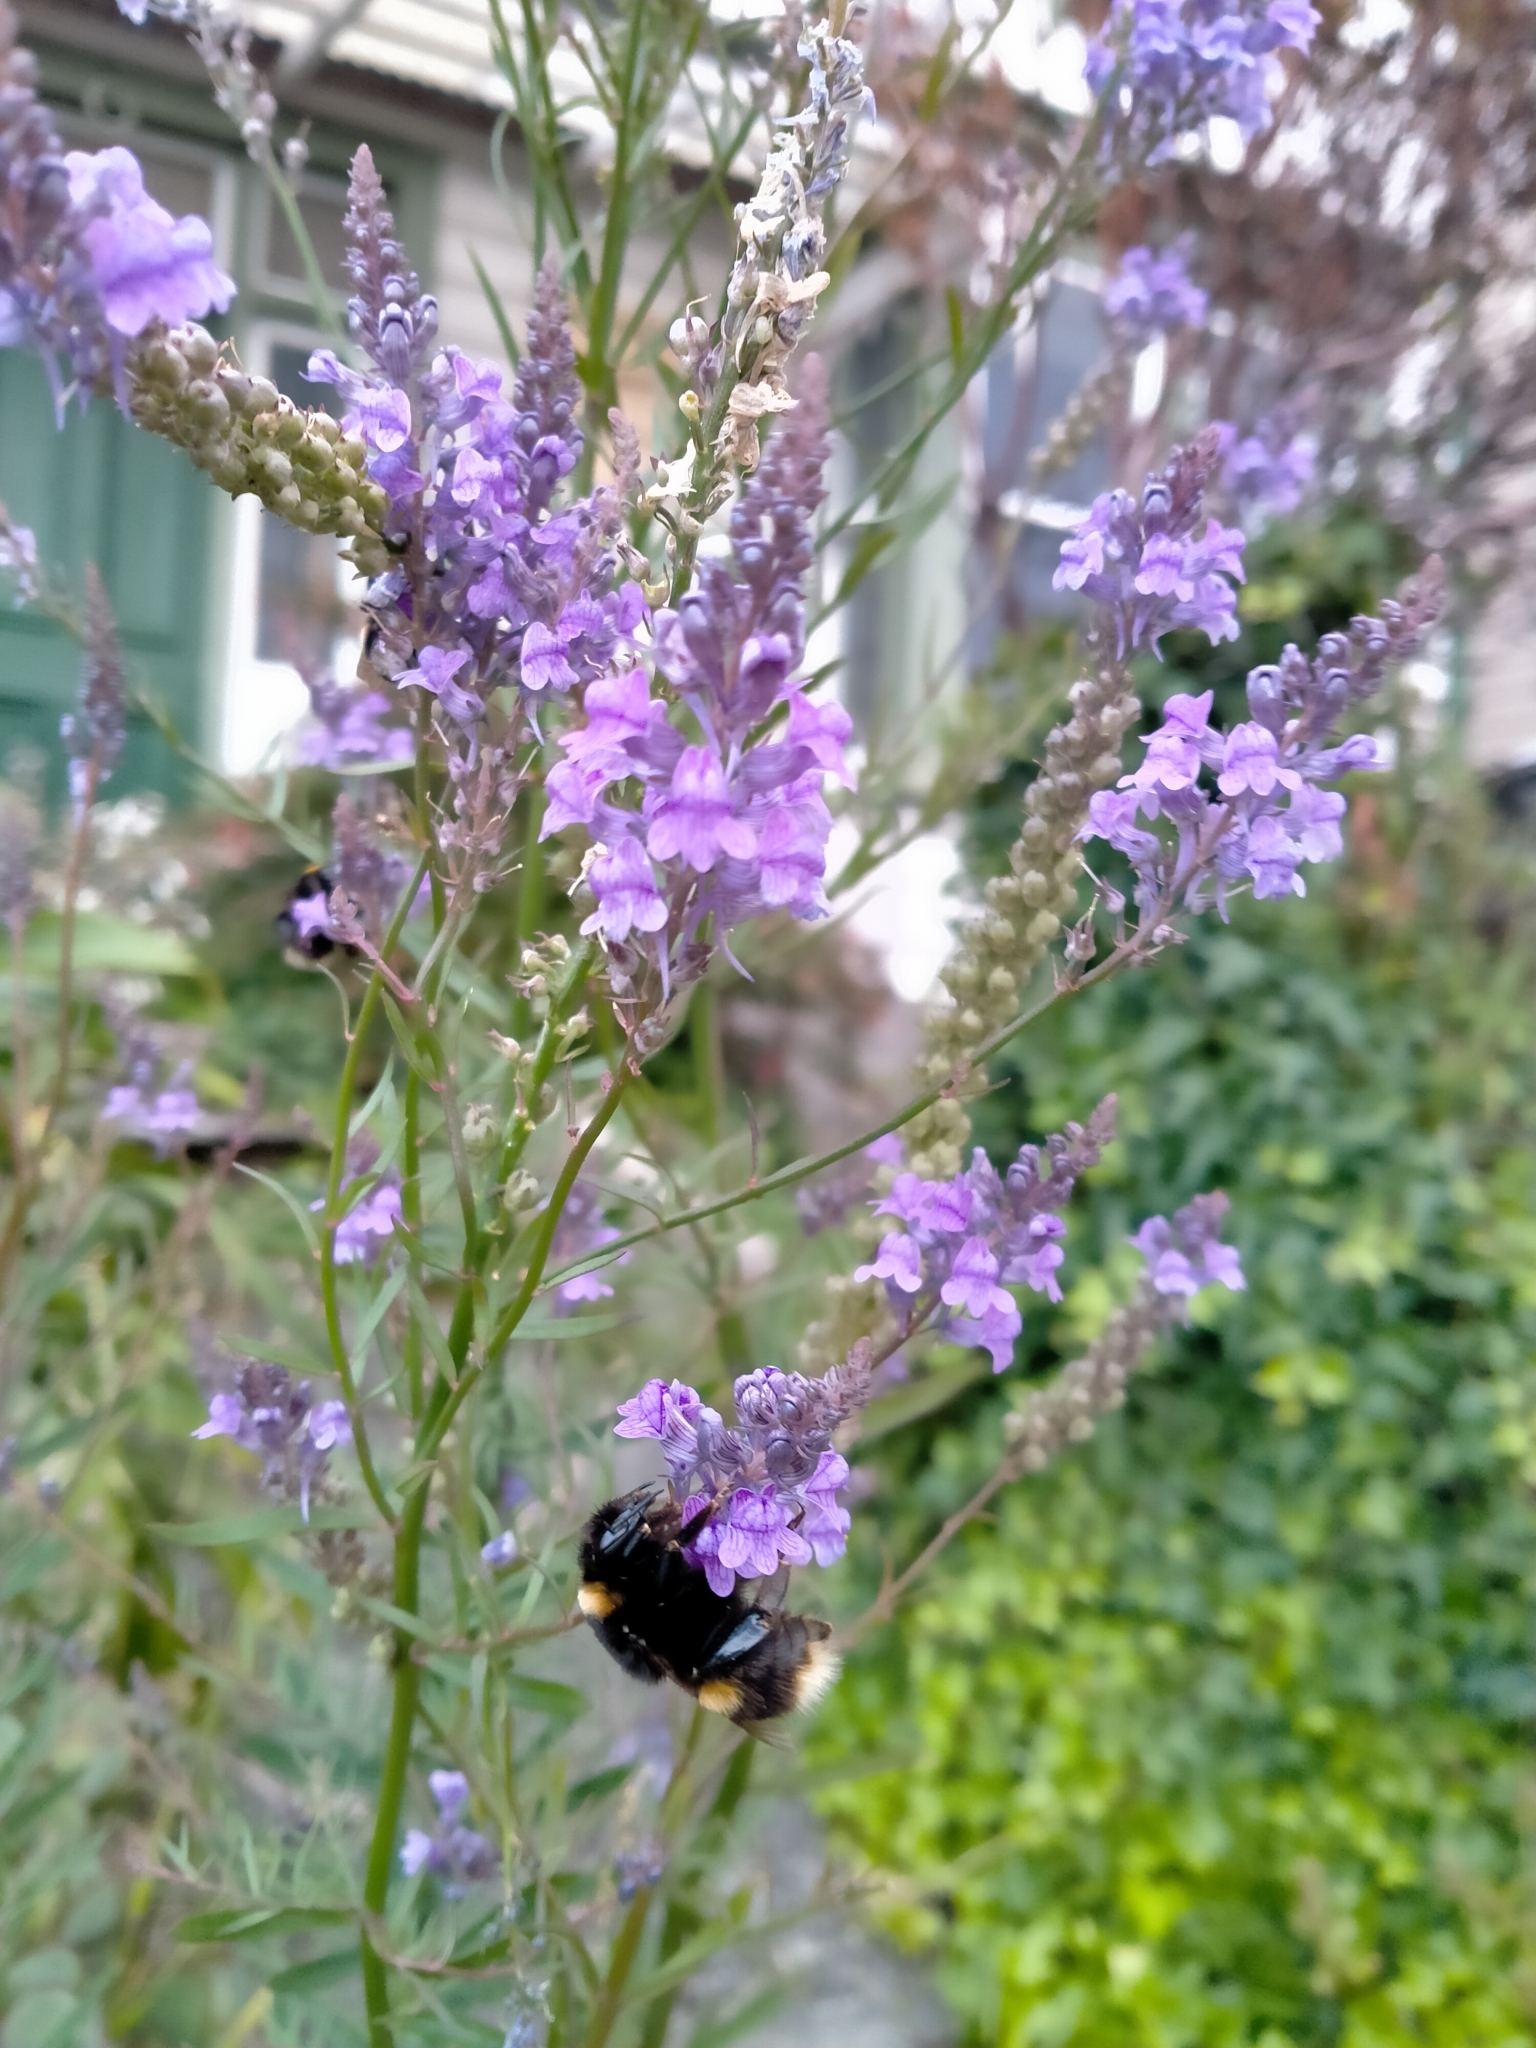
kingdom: Animalia
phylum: Arthropoda
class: Insecta
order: Hymenoptera
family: Apidae
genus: Bombus
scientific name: Bombus terrestris
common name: Buff-tailed bumblebee
